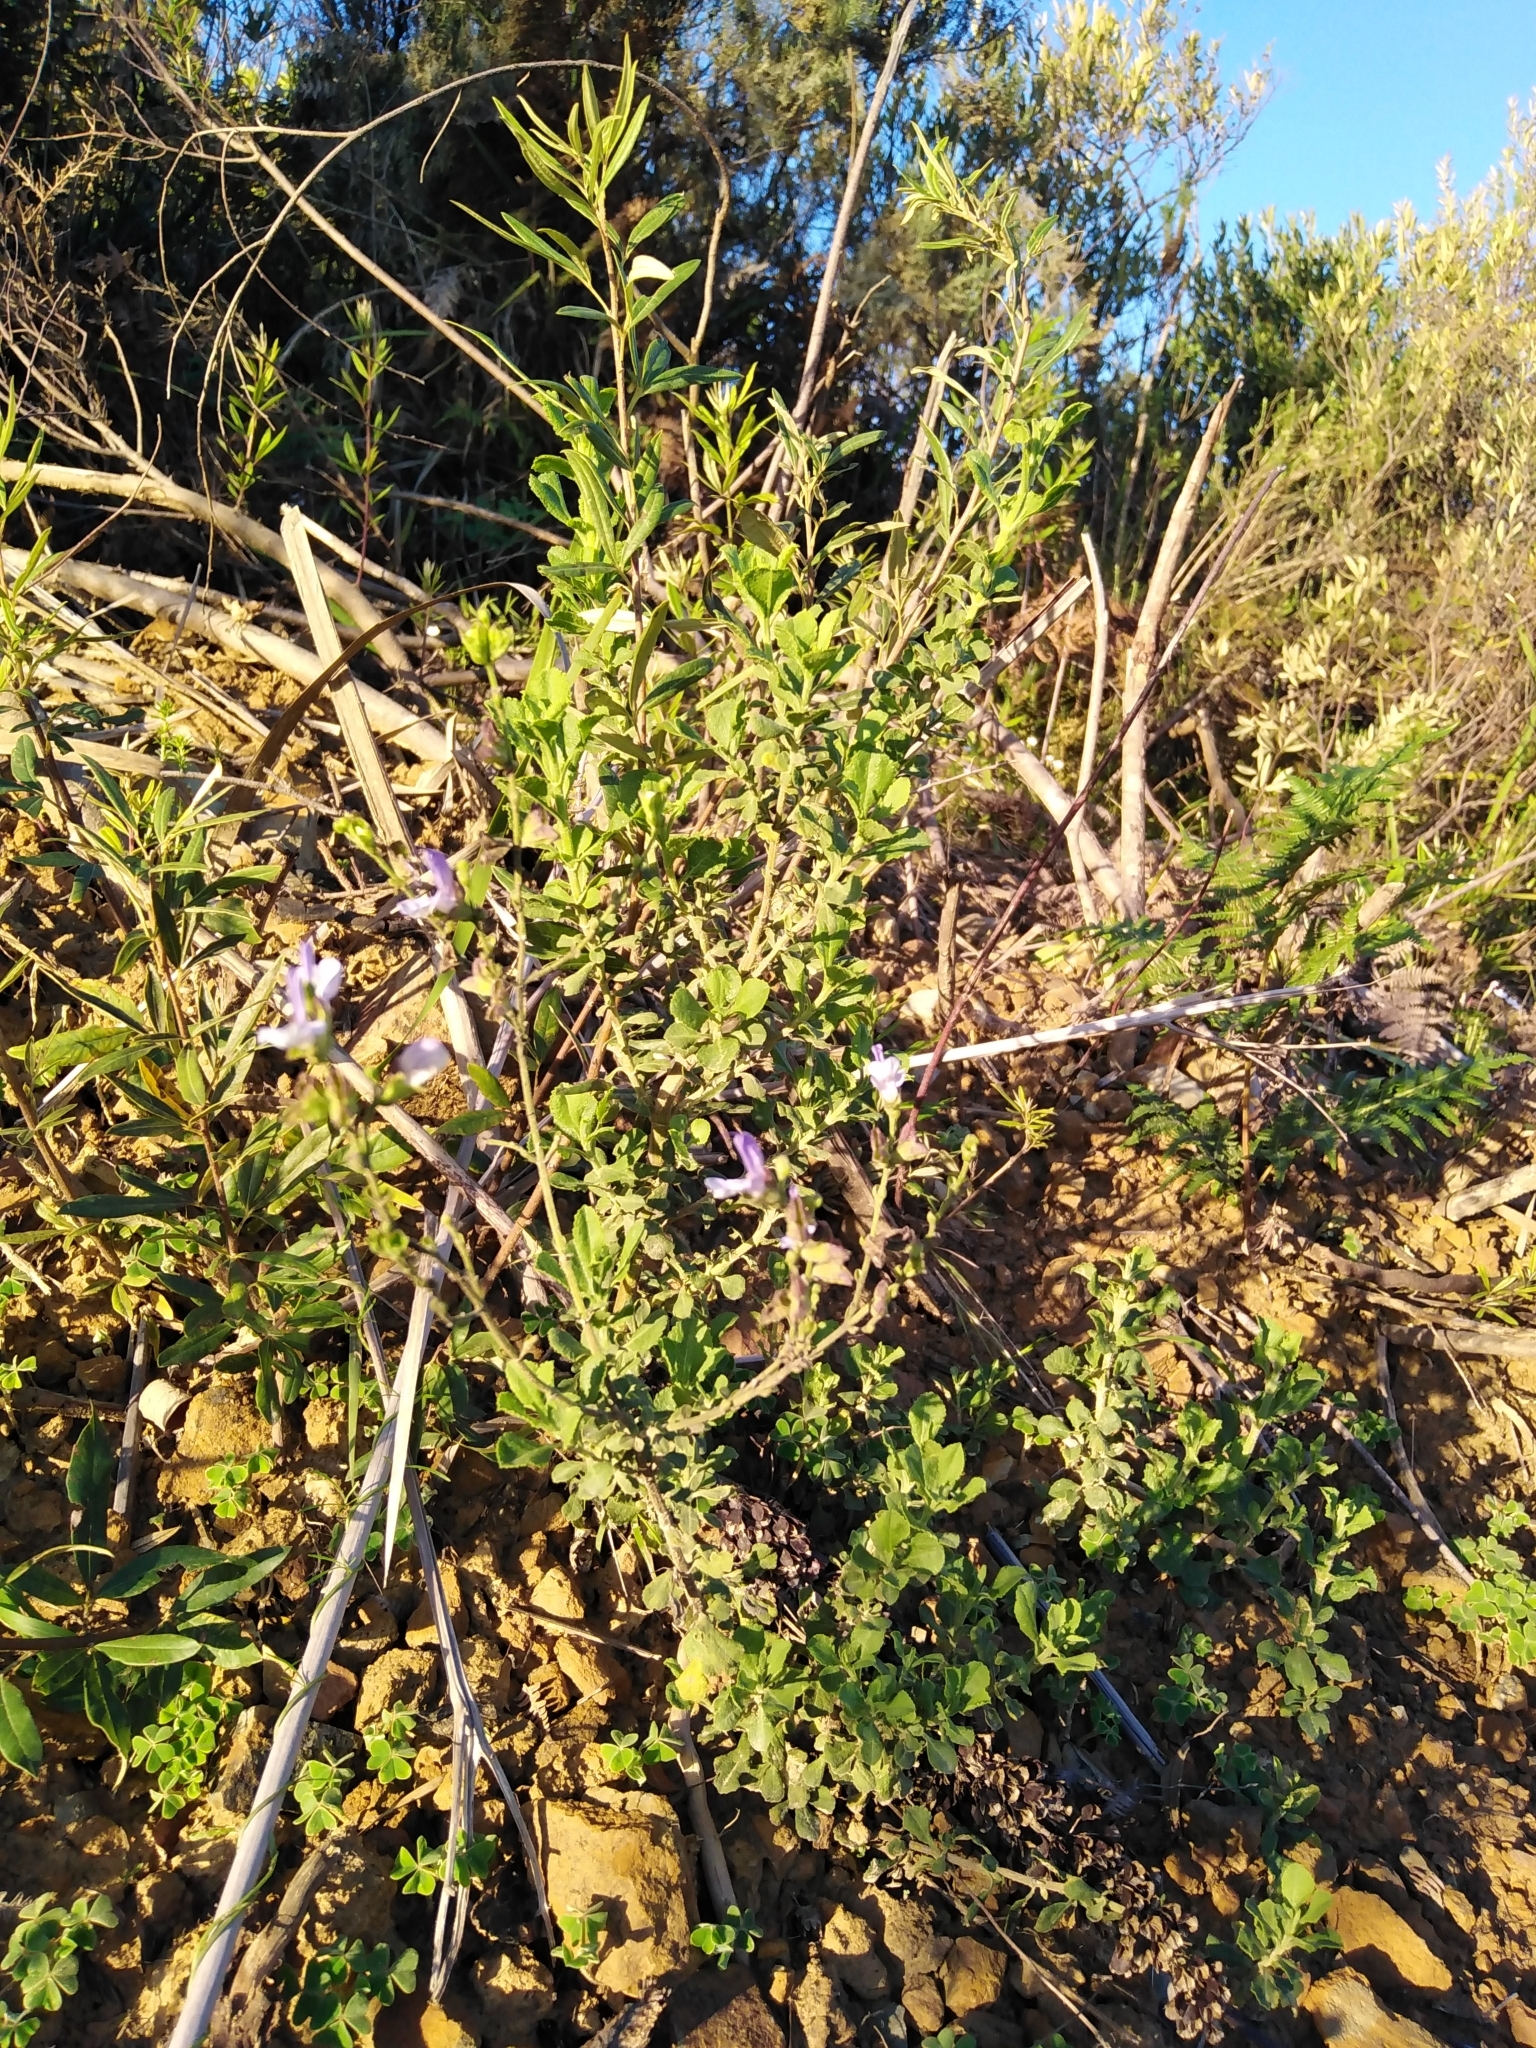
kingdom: Plantae
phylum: Tracheophyta
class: Magnoliopsida
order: Lamiales
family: Lamiaceae
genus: Salvia
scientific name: Salvia chamelaeagnea
